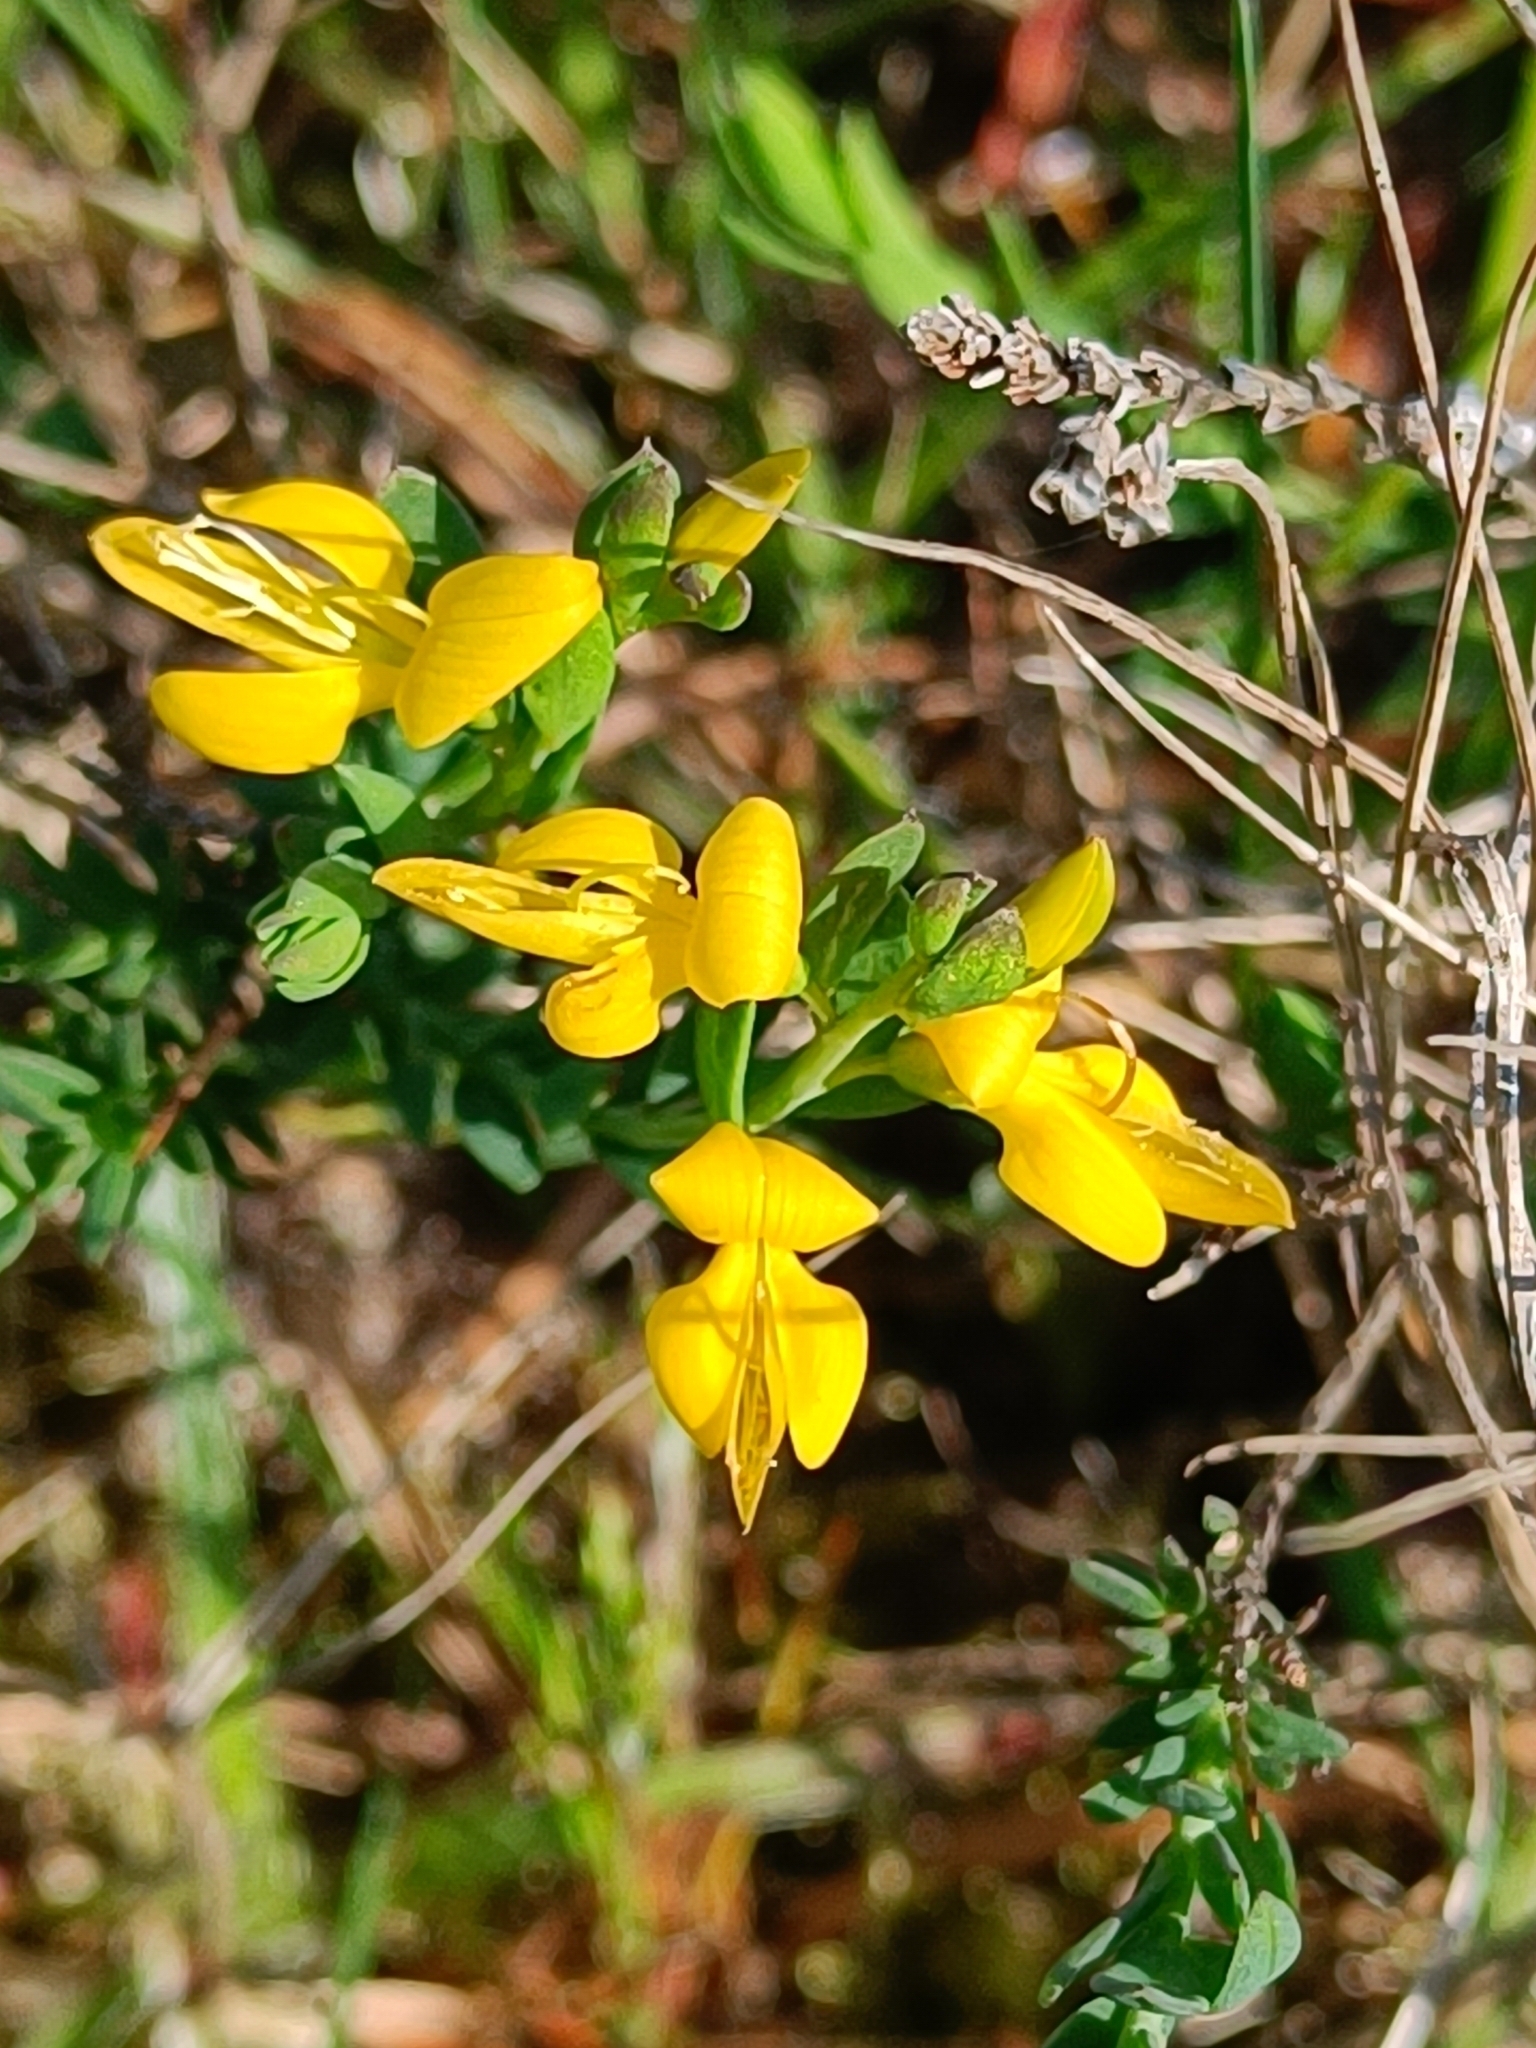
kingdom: Plantae
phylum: Tracheophyta
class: Magnoliopsida
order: Fabales
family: Fabaceae
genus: Genista
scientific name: Genista anglica
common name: Petty whin
